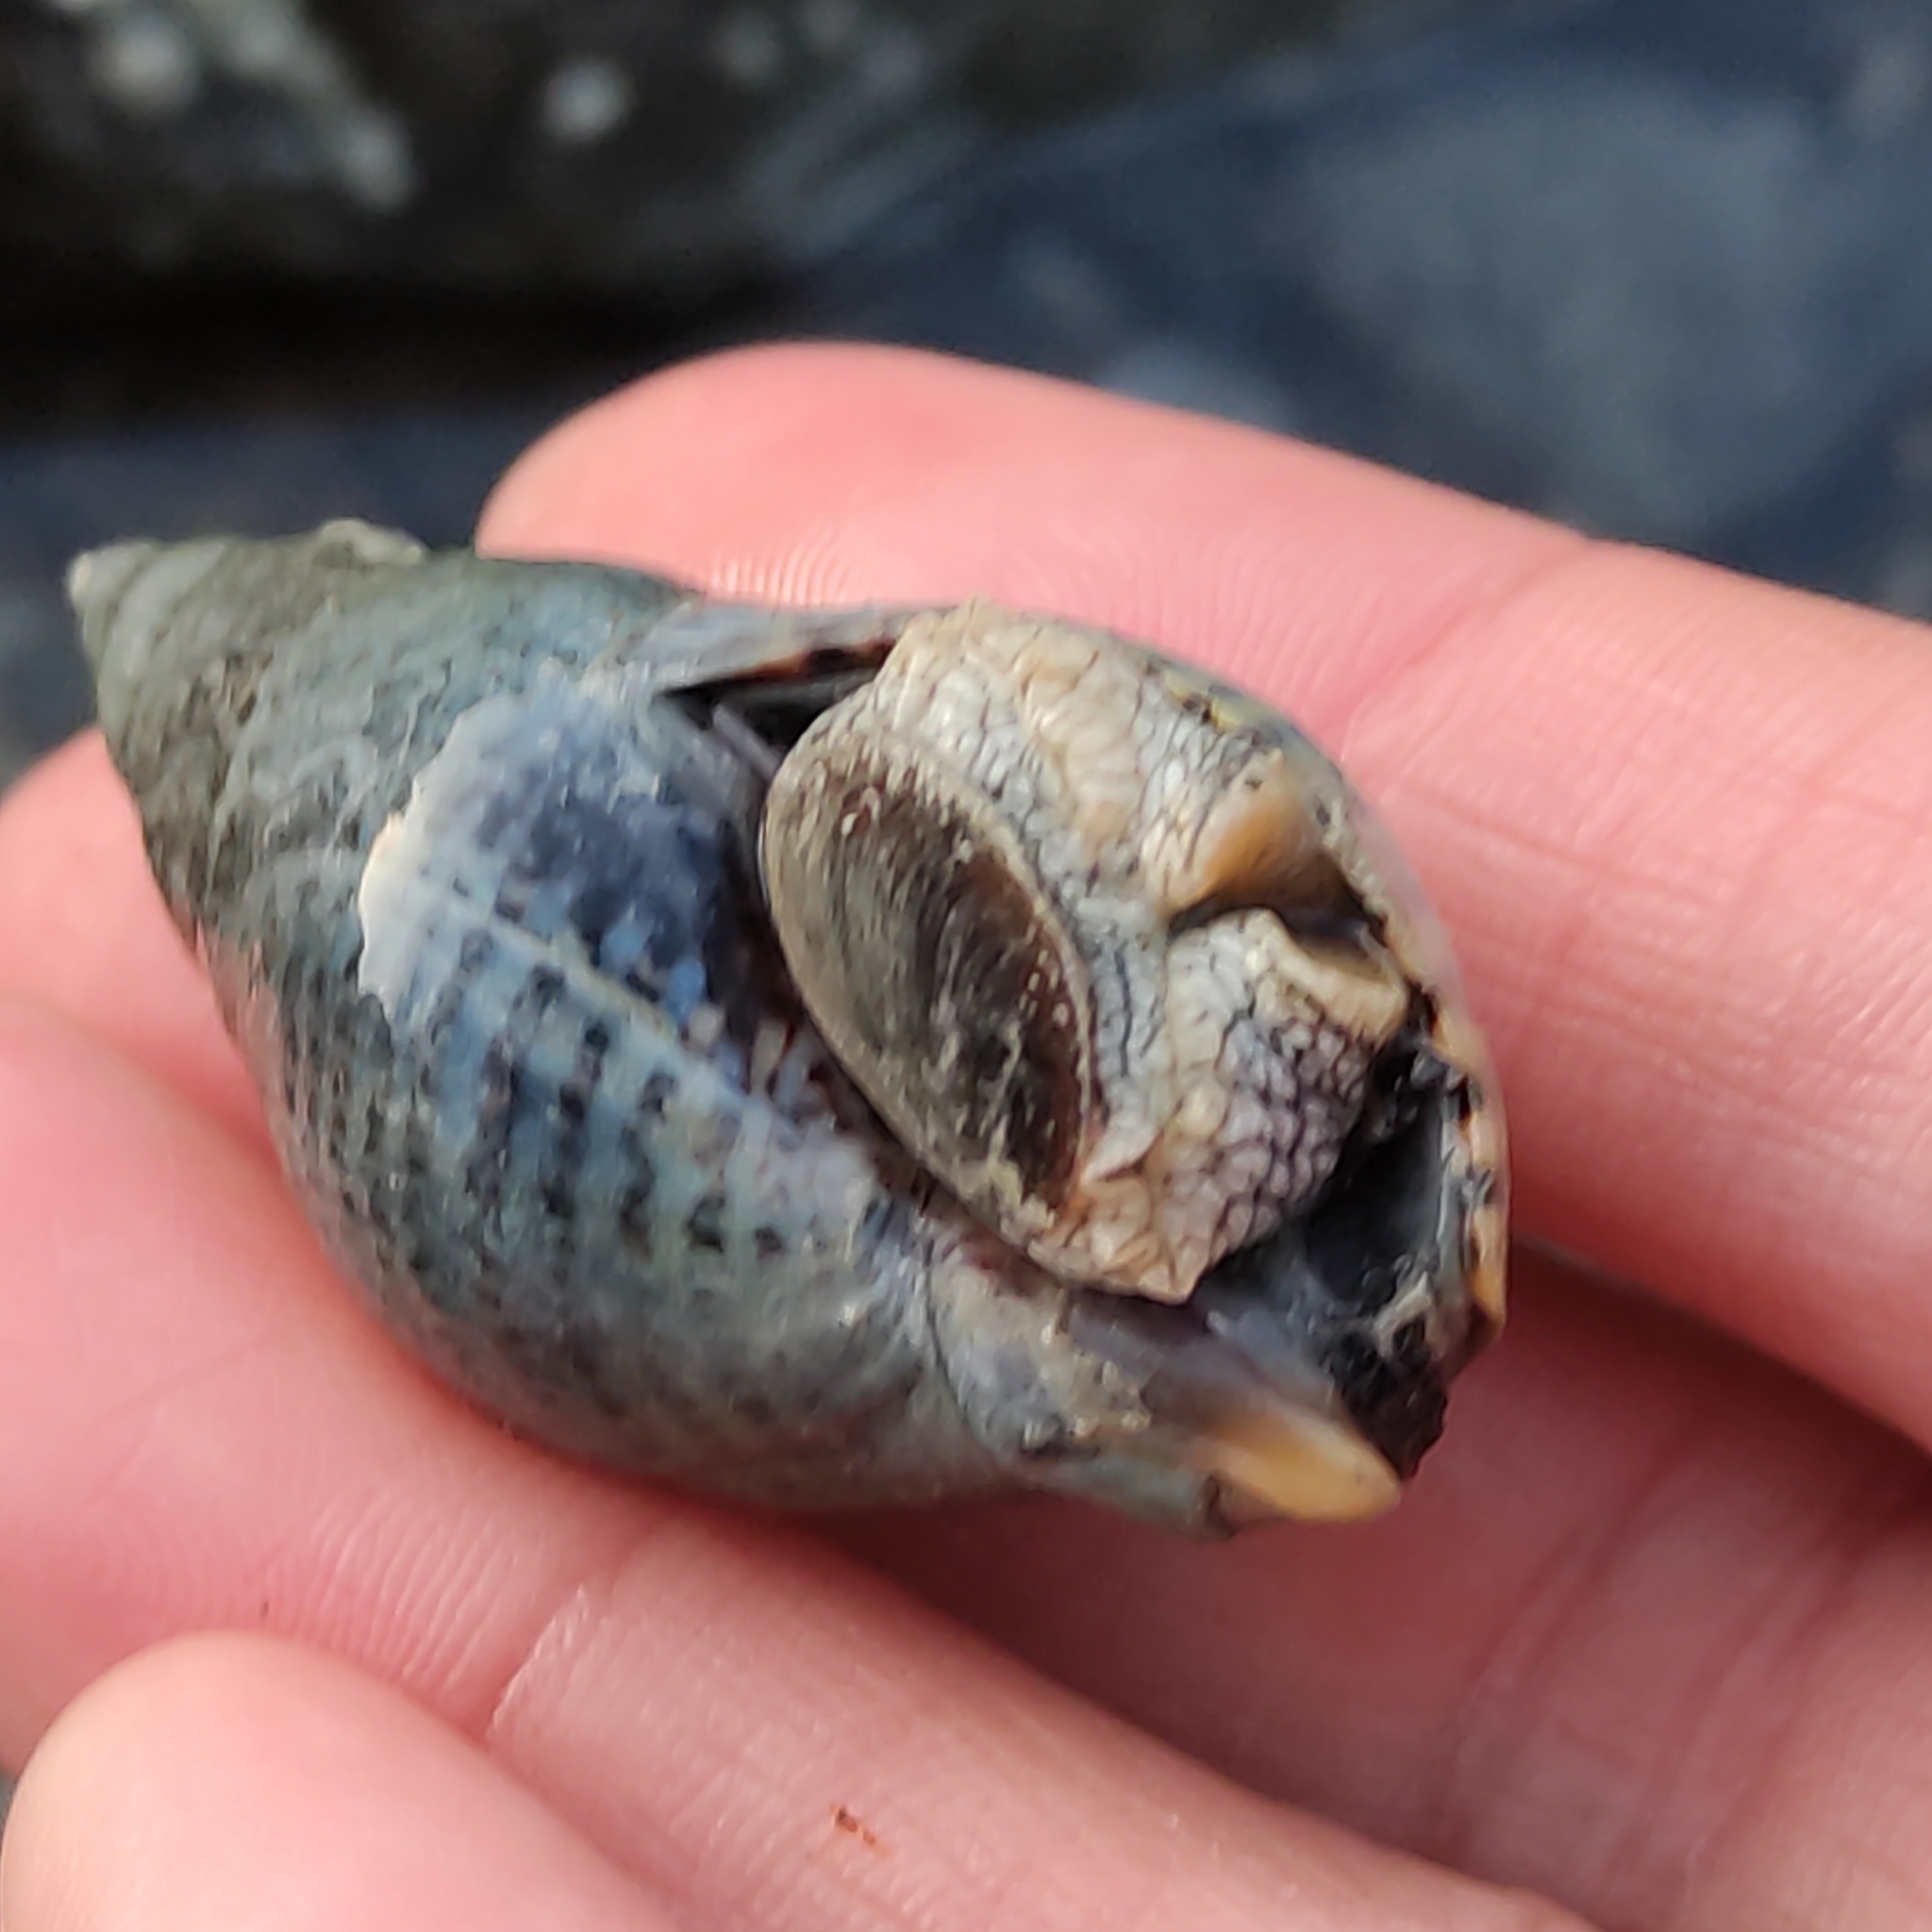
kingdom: Animalia
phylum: Mollusca
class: Gastropoda
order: Neogastropoda
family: Cominellidae
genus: Cominella
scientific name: Cominella maculosa
